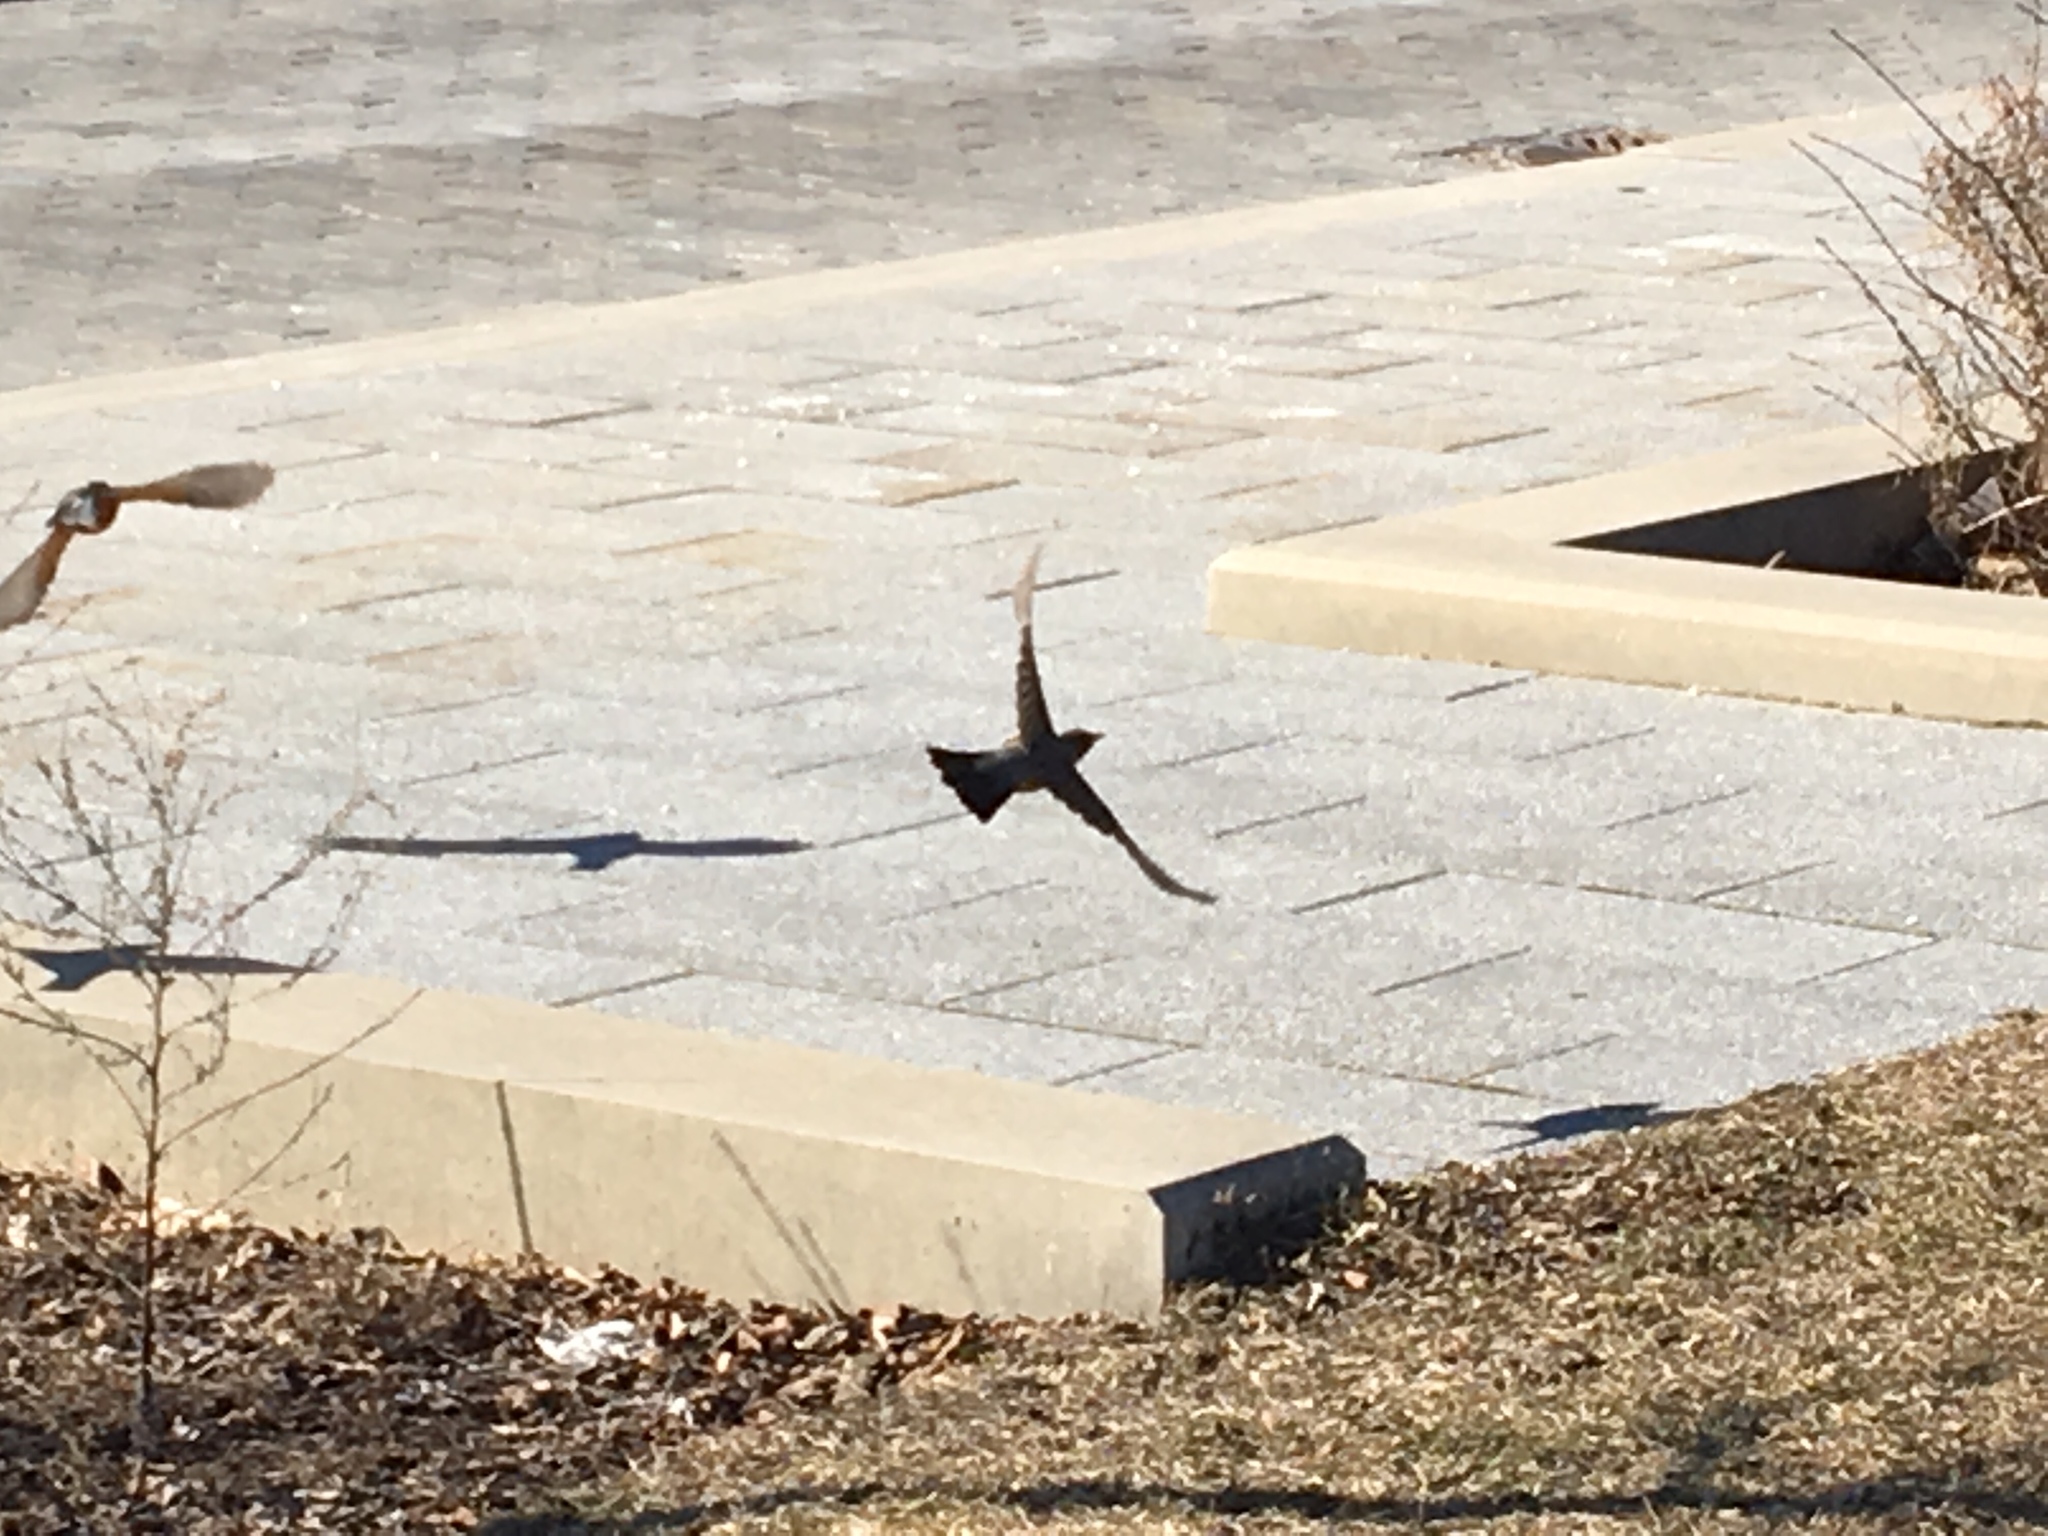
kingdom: Animalia
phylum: Chordata
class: Aves
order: Passeriformes
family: Turdidae
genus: Turdus
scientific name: Turdus migratorius
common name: American robin
